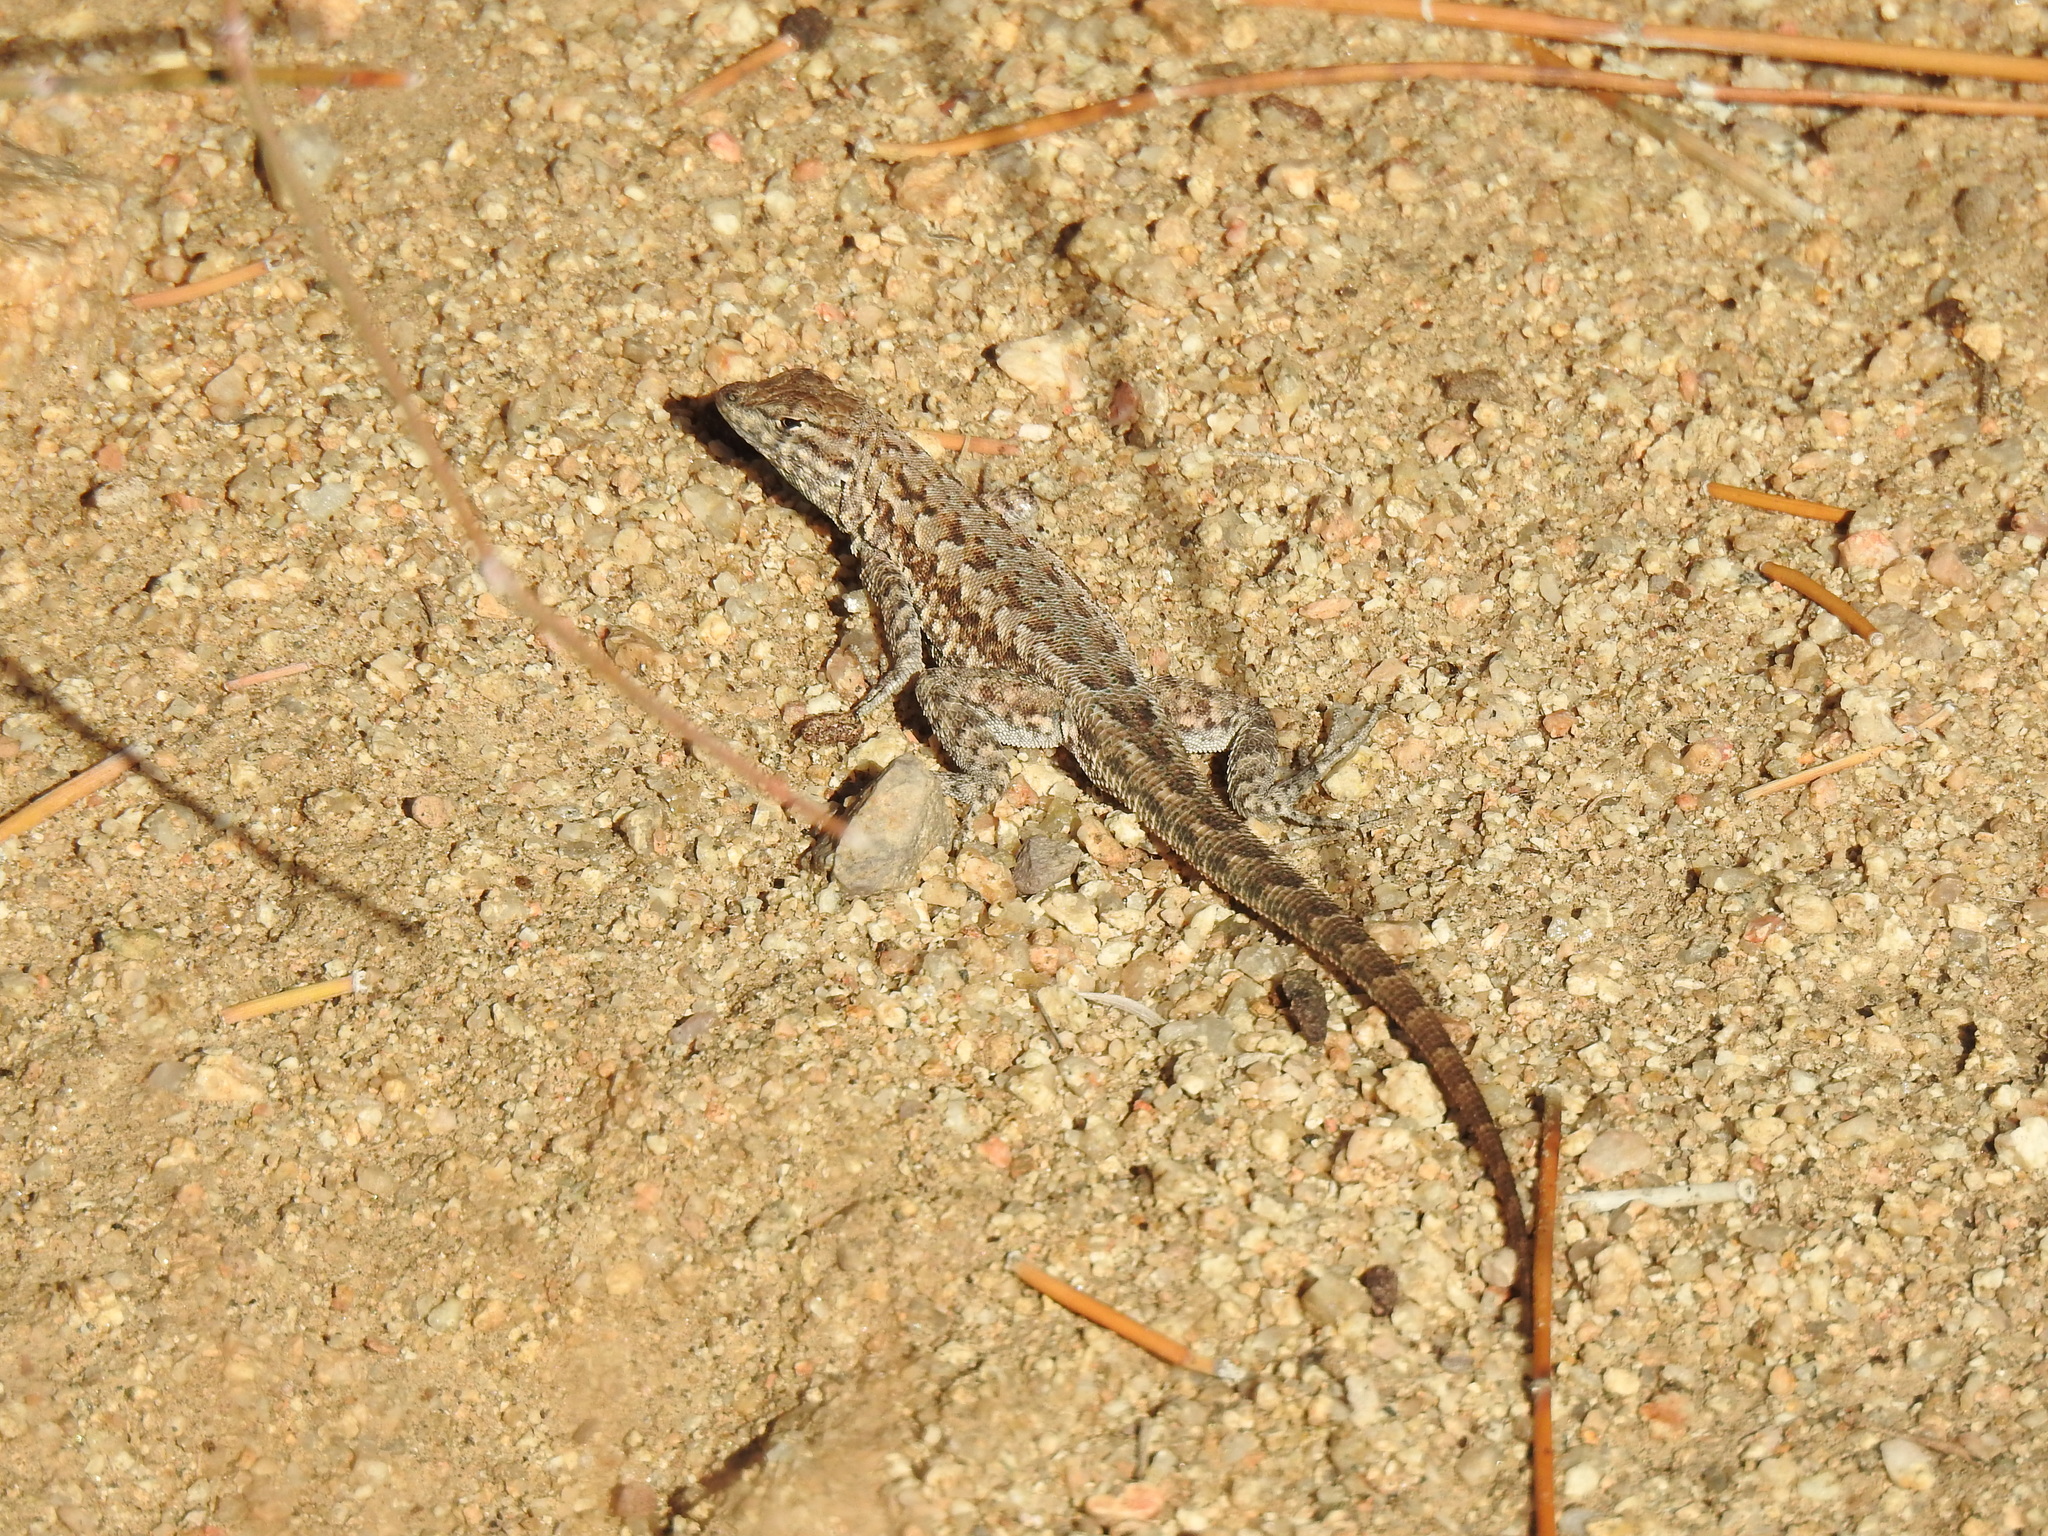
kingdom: Animalia
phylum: Chordata
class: Squamata
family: Phrynosomatidae
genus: Uta
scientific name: Uta stansburiana
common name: Side-blotched lizard
